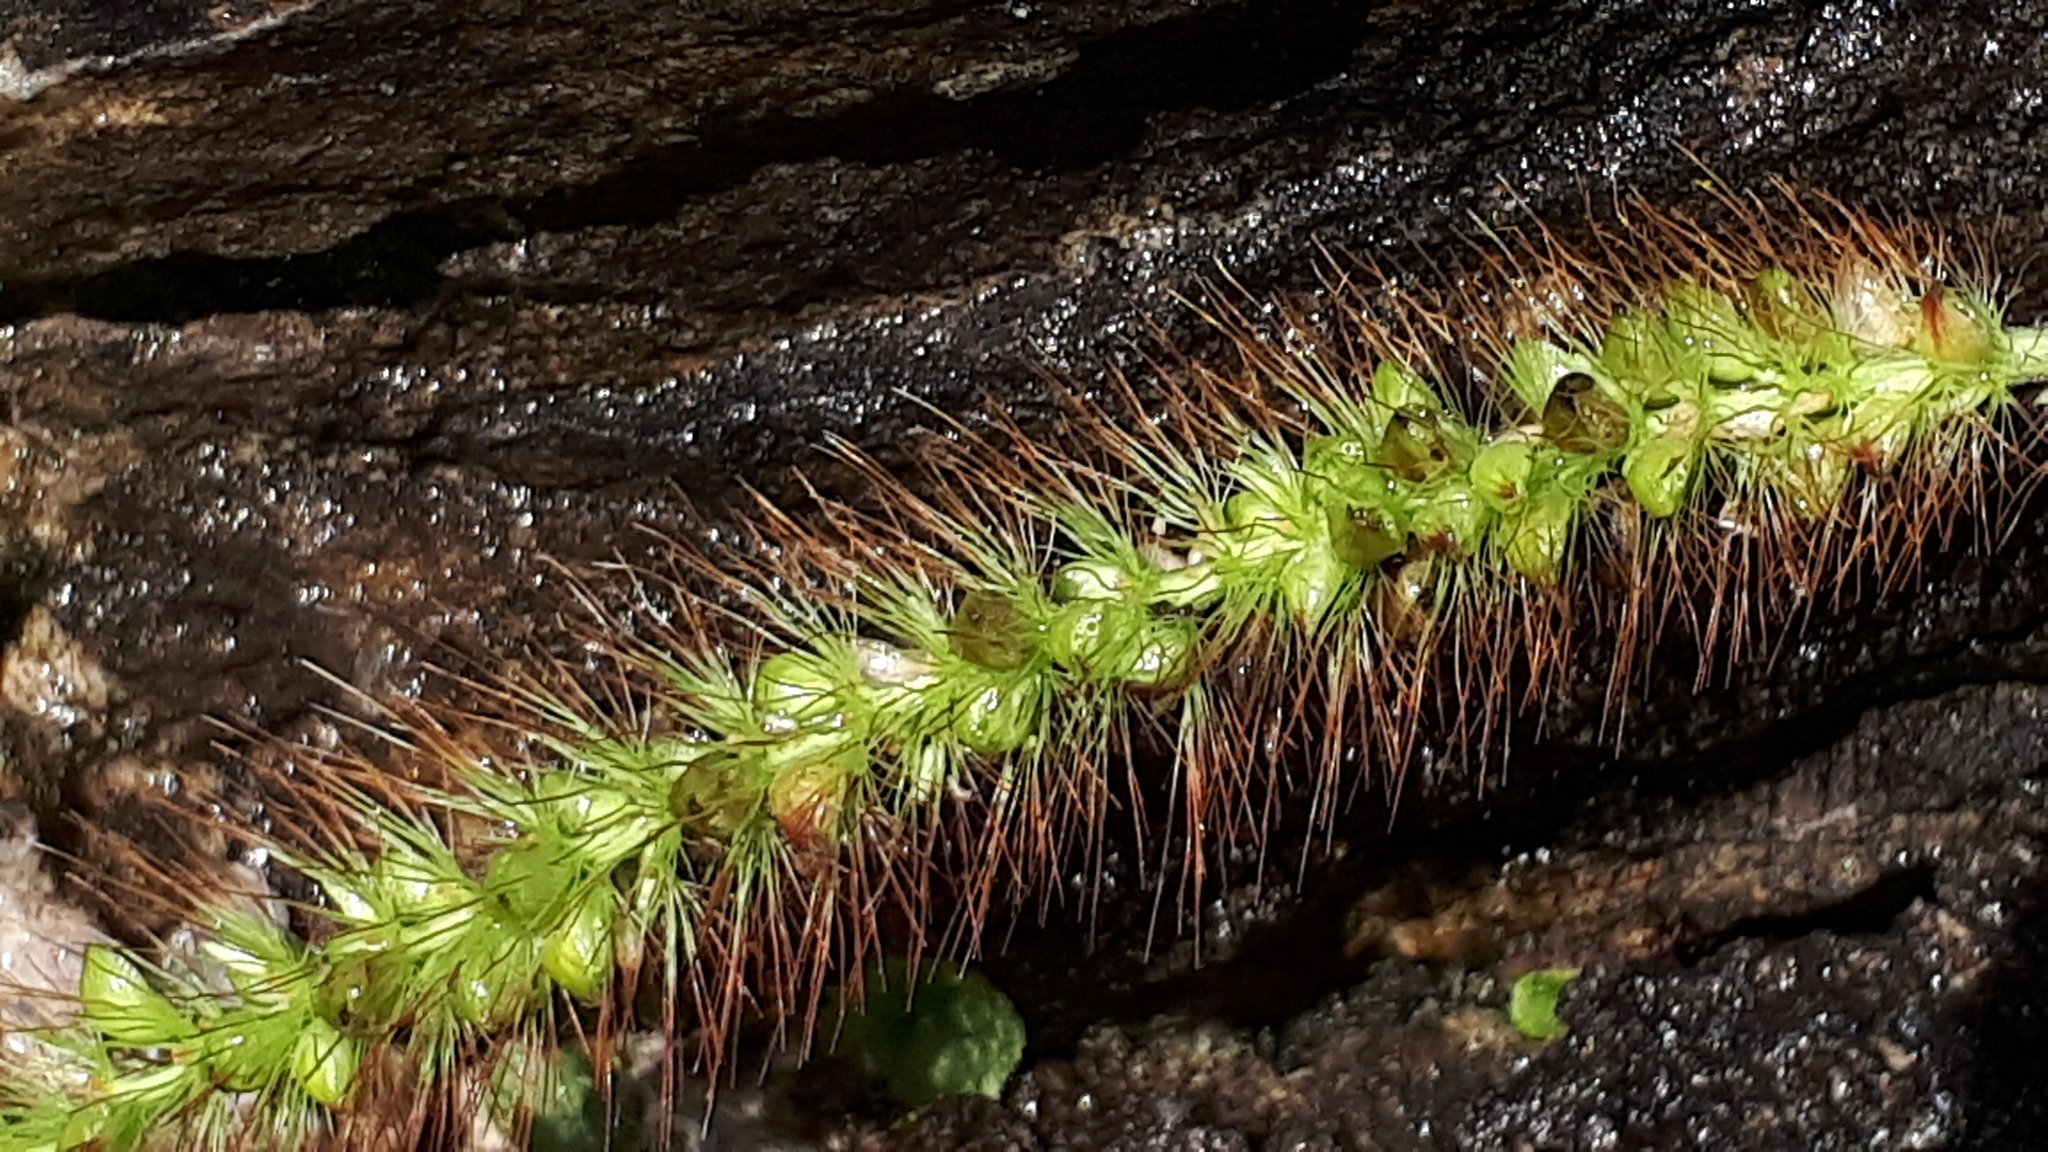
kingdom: Plantae
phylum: Tracheophyta
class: Liliopsida
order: Poales
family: Poaceae
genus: Setaria
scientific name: Setaria pumila
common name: Yellow bristle-grass
